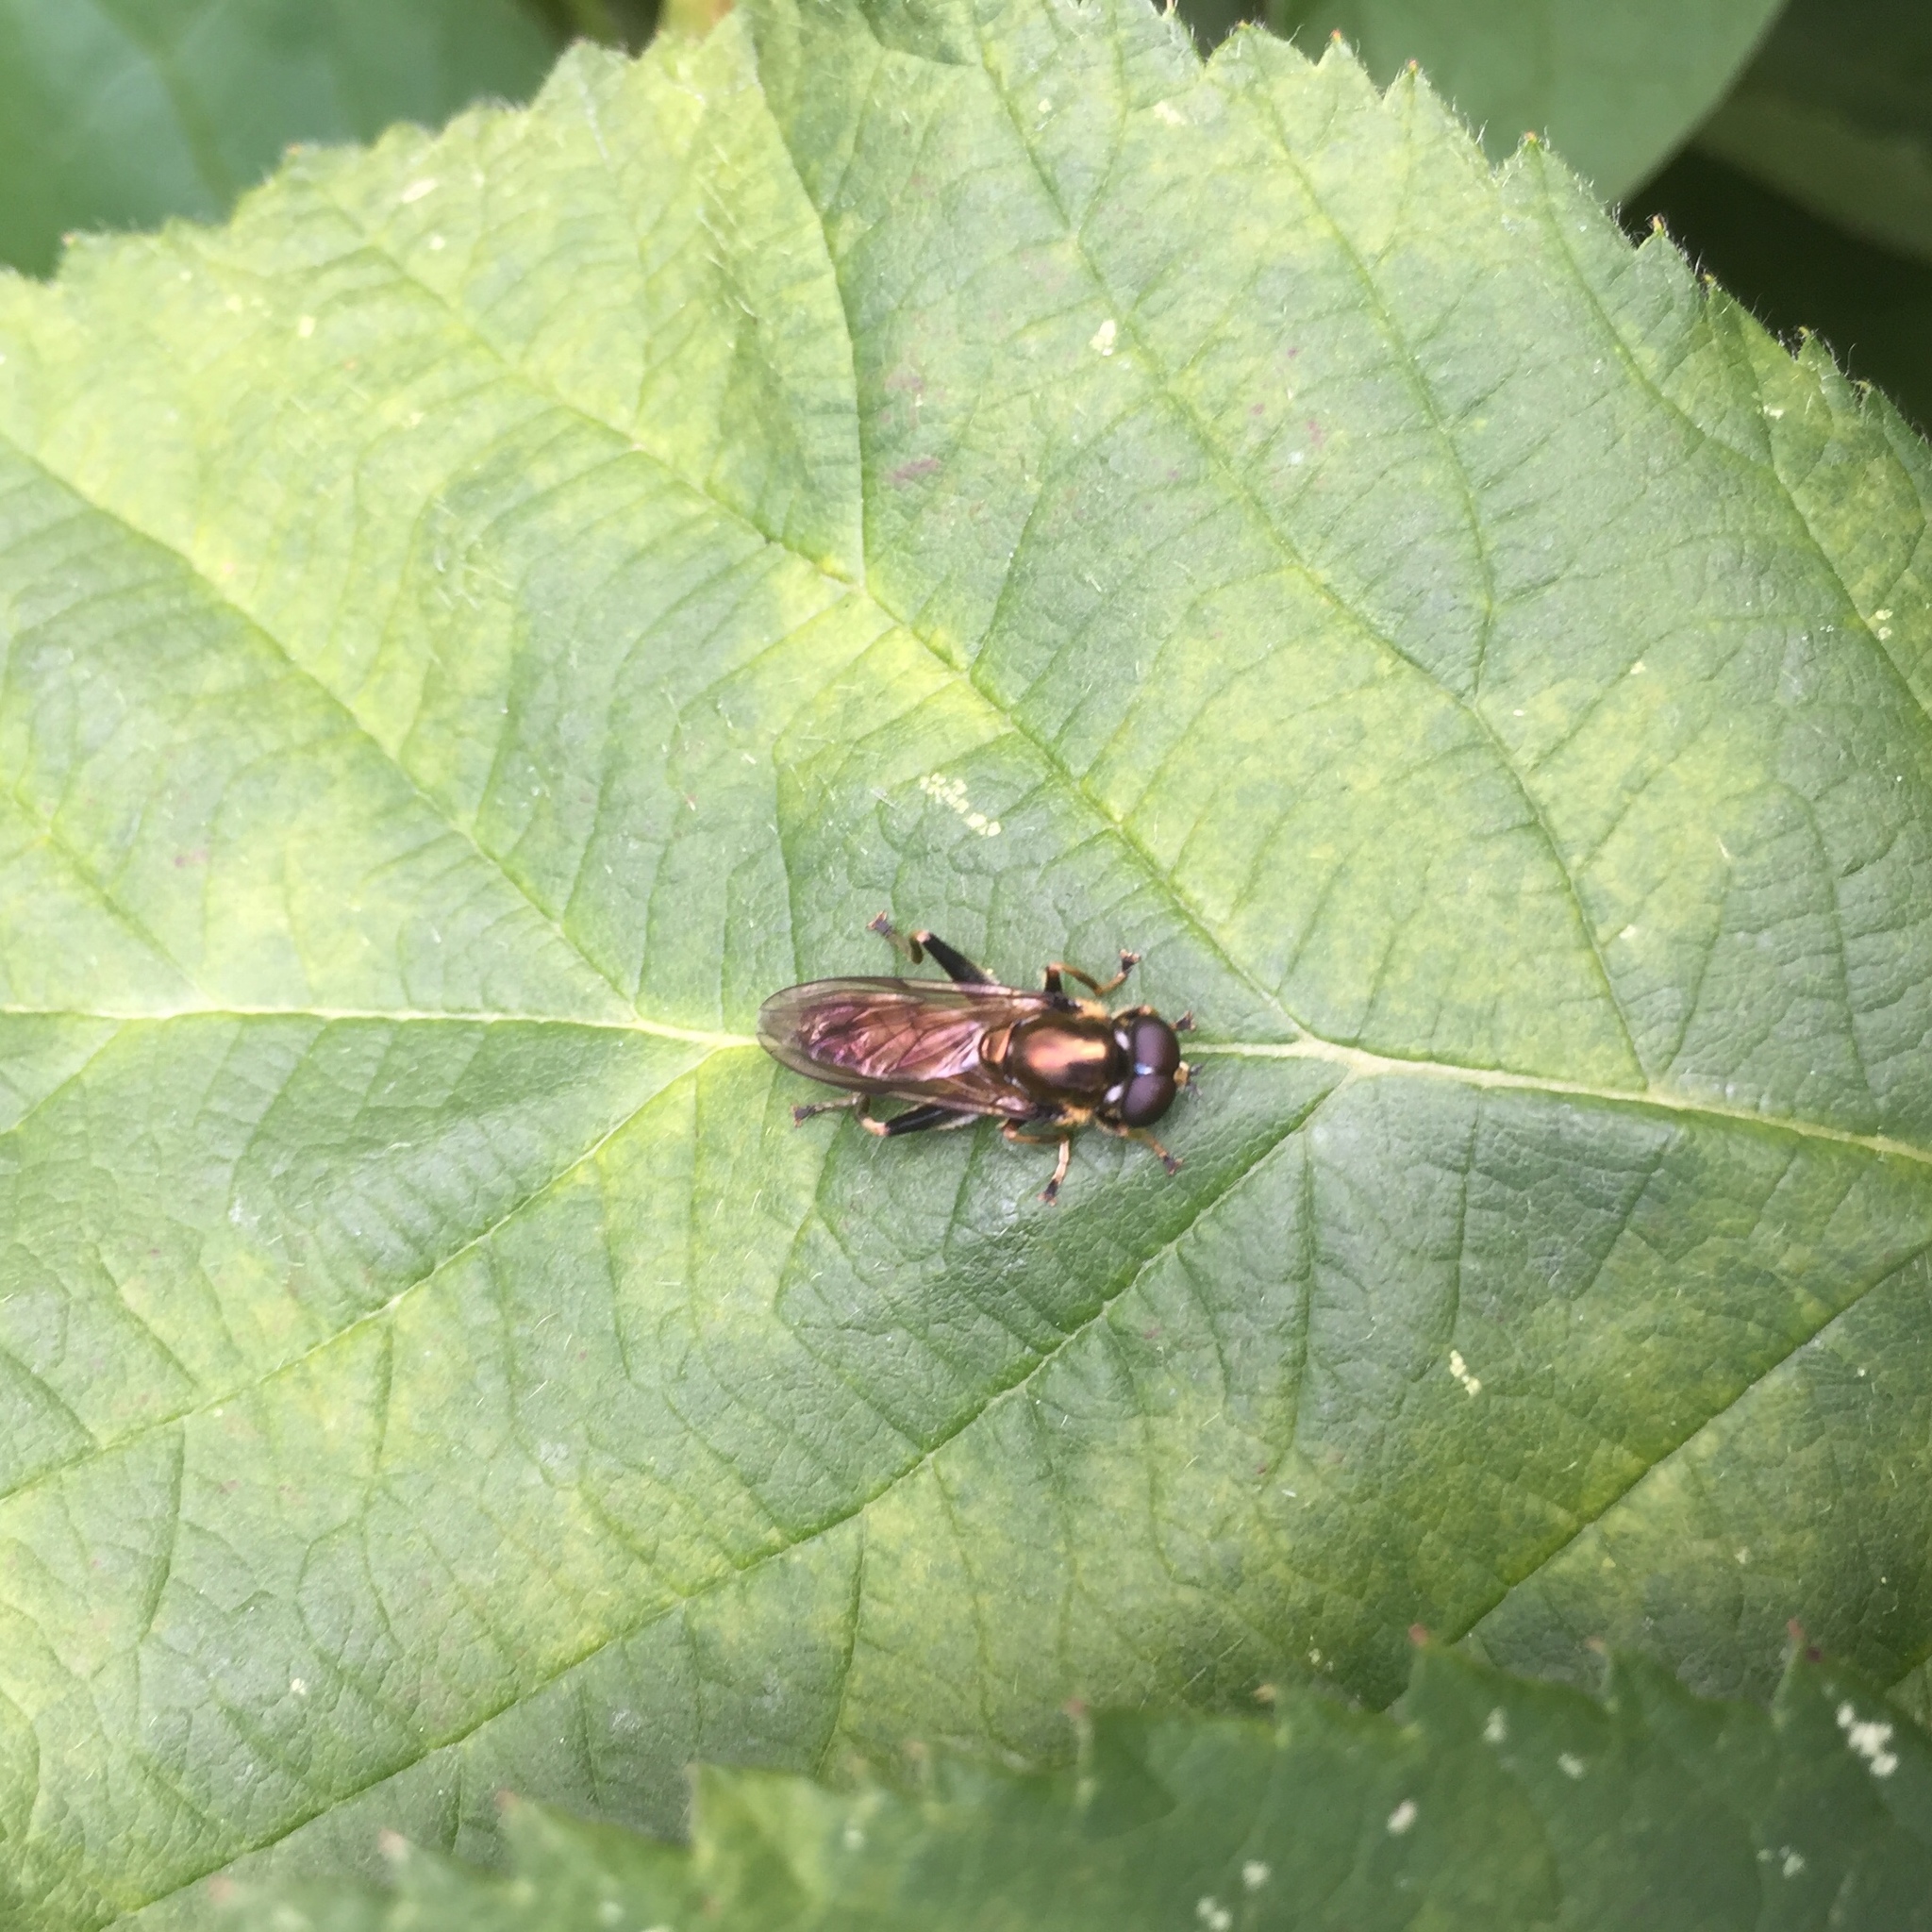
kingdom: Animalia
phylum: Arthropoda
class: Insecta
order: Diptera
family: Syrphidae
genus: Xylota
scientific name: Xylota segnis
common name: Brown-toed forest fly
